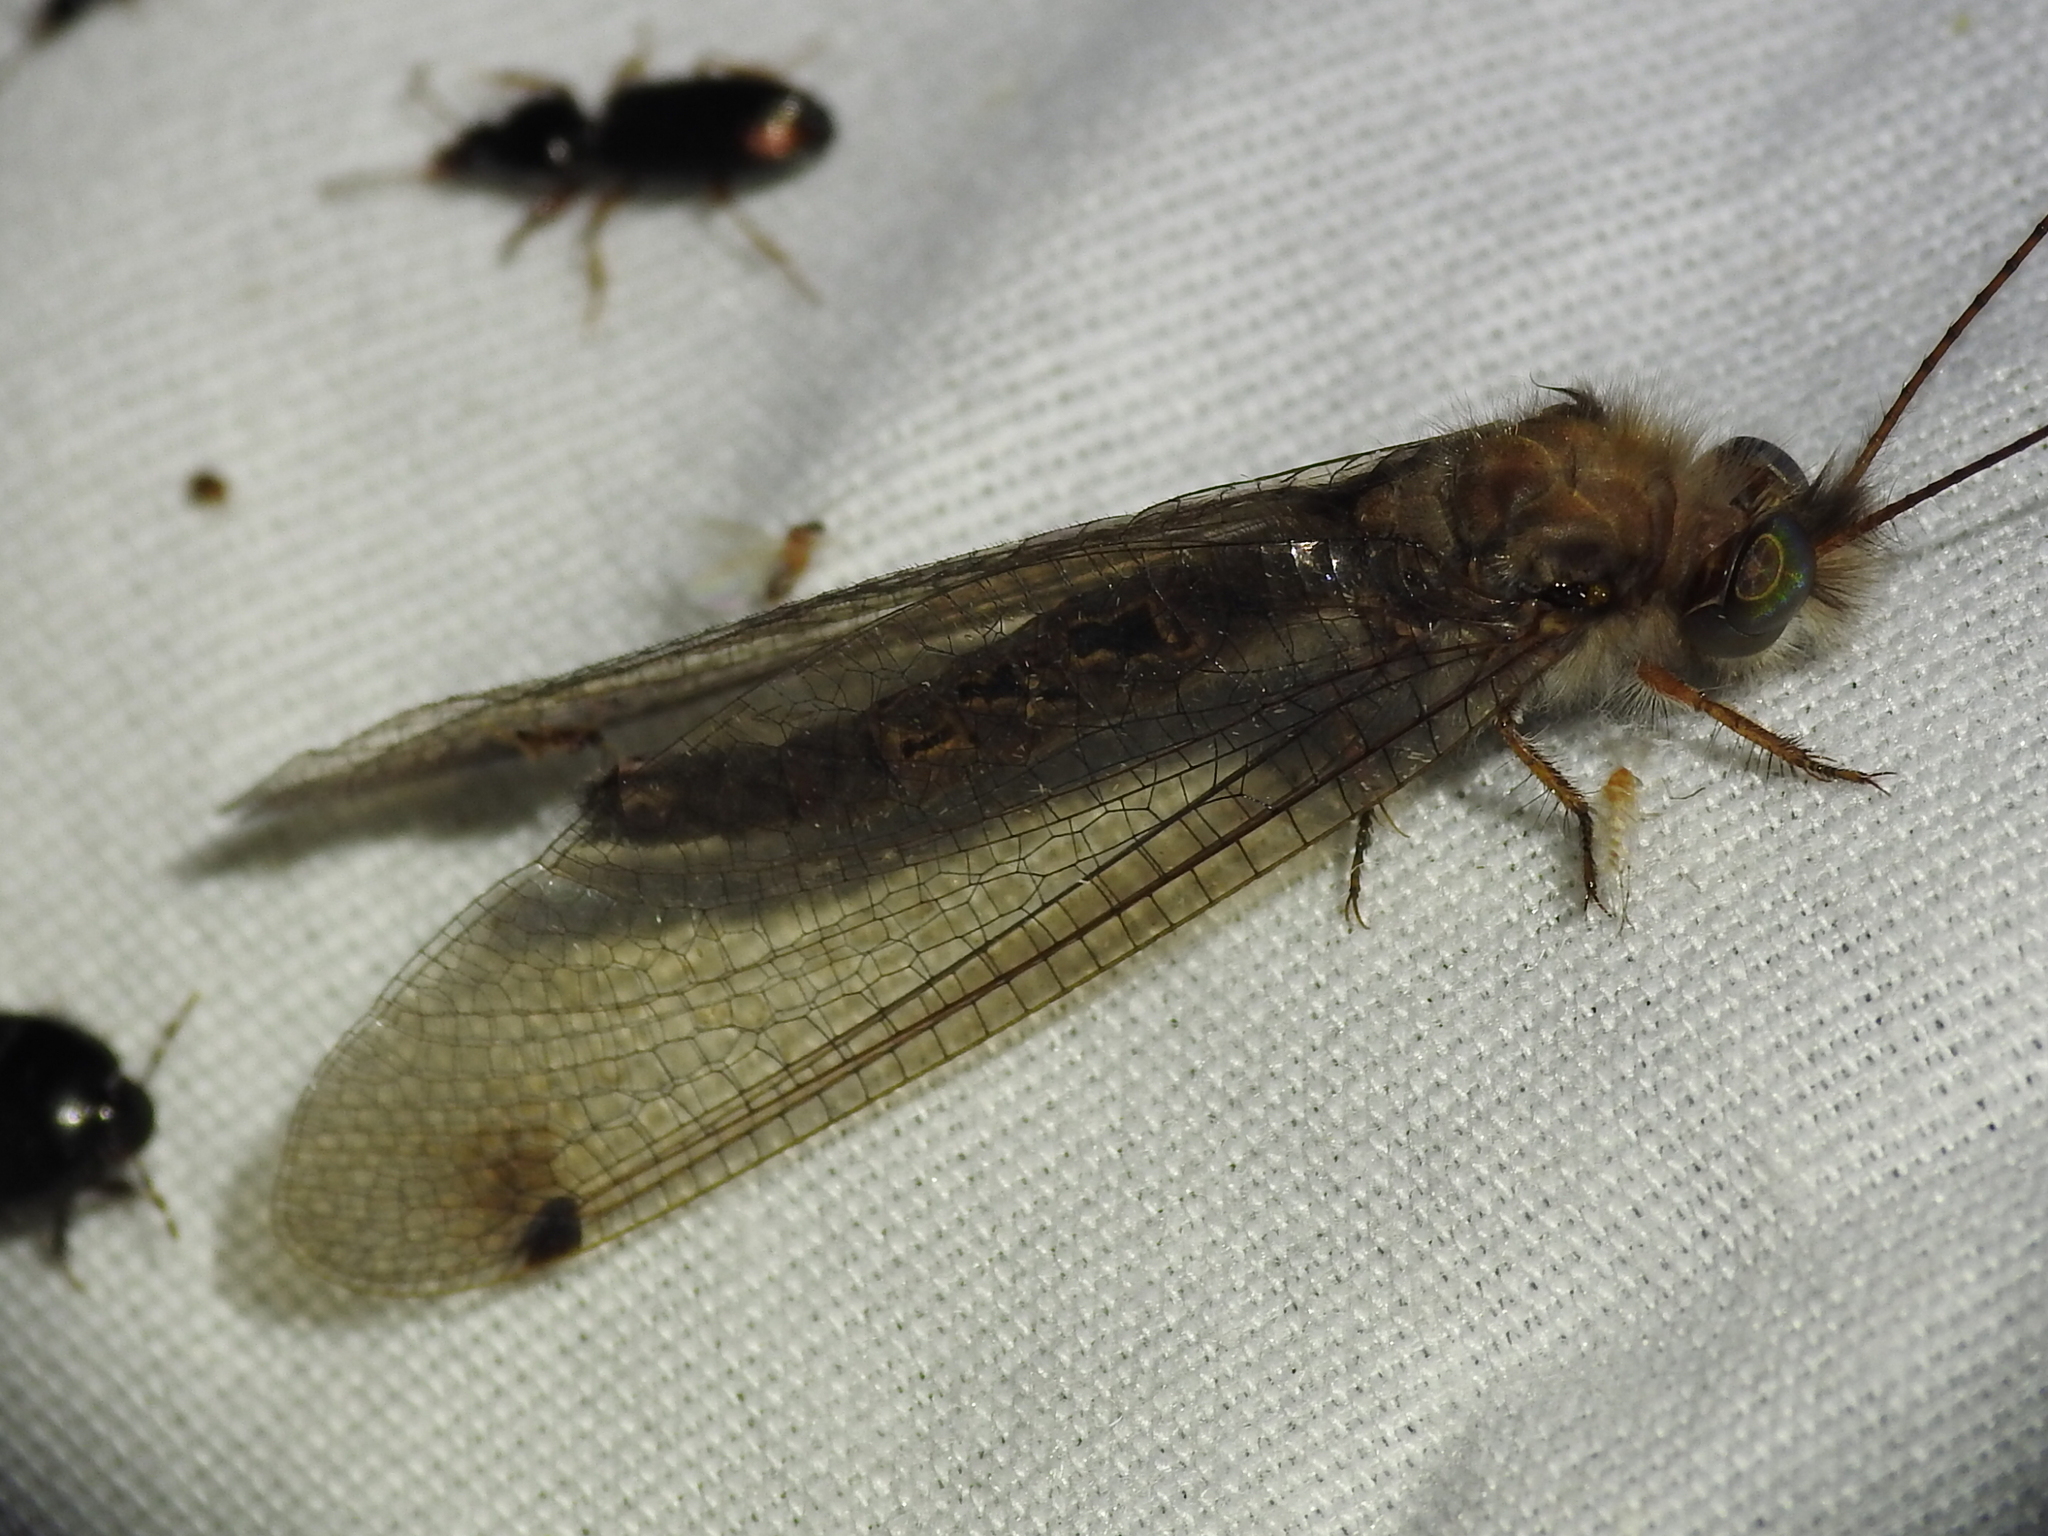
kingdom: Animalia
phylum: Arthropoda
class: Insecta
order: Neuroptera
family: Ascalaphidae
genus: Ululodes
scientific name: Ululodes macleayanus
